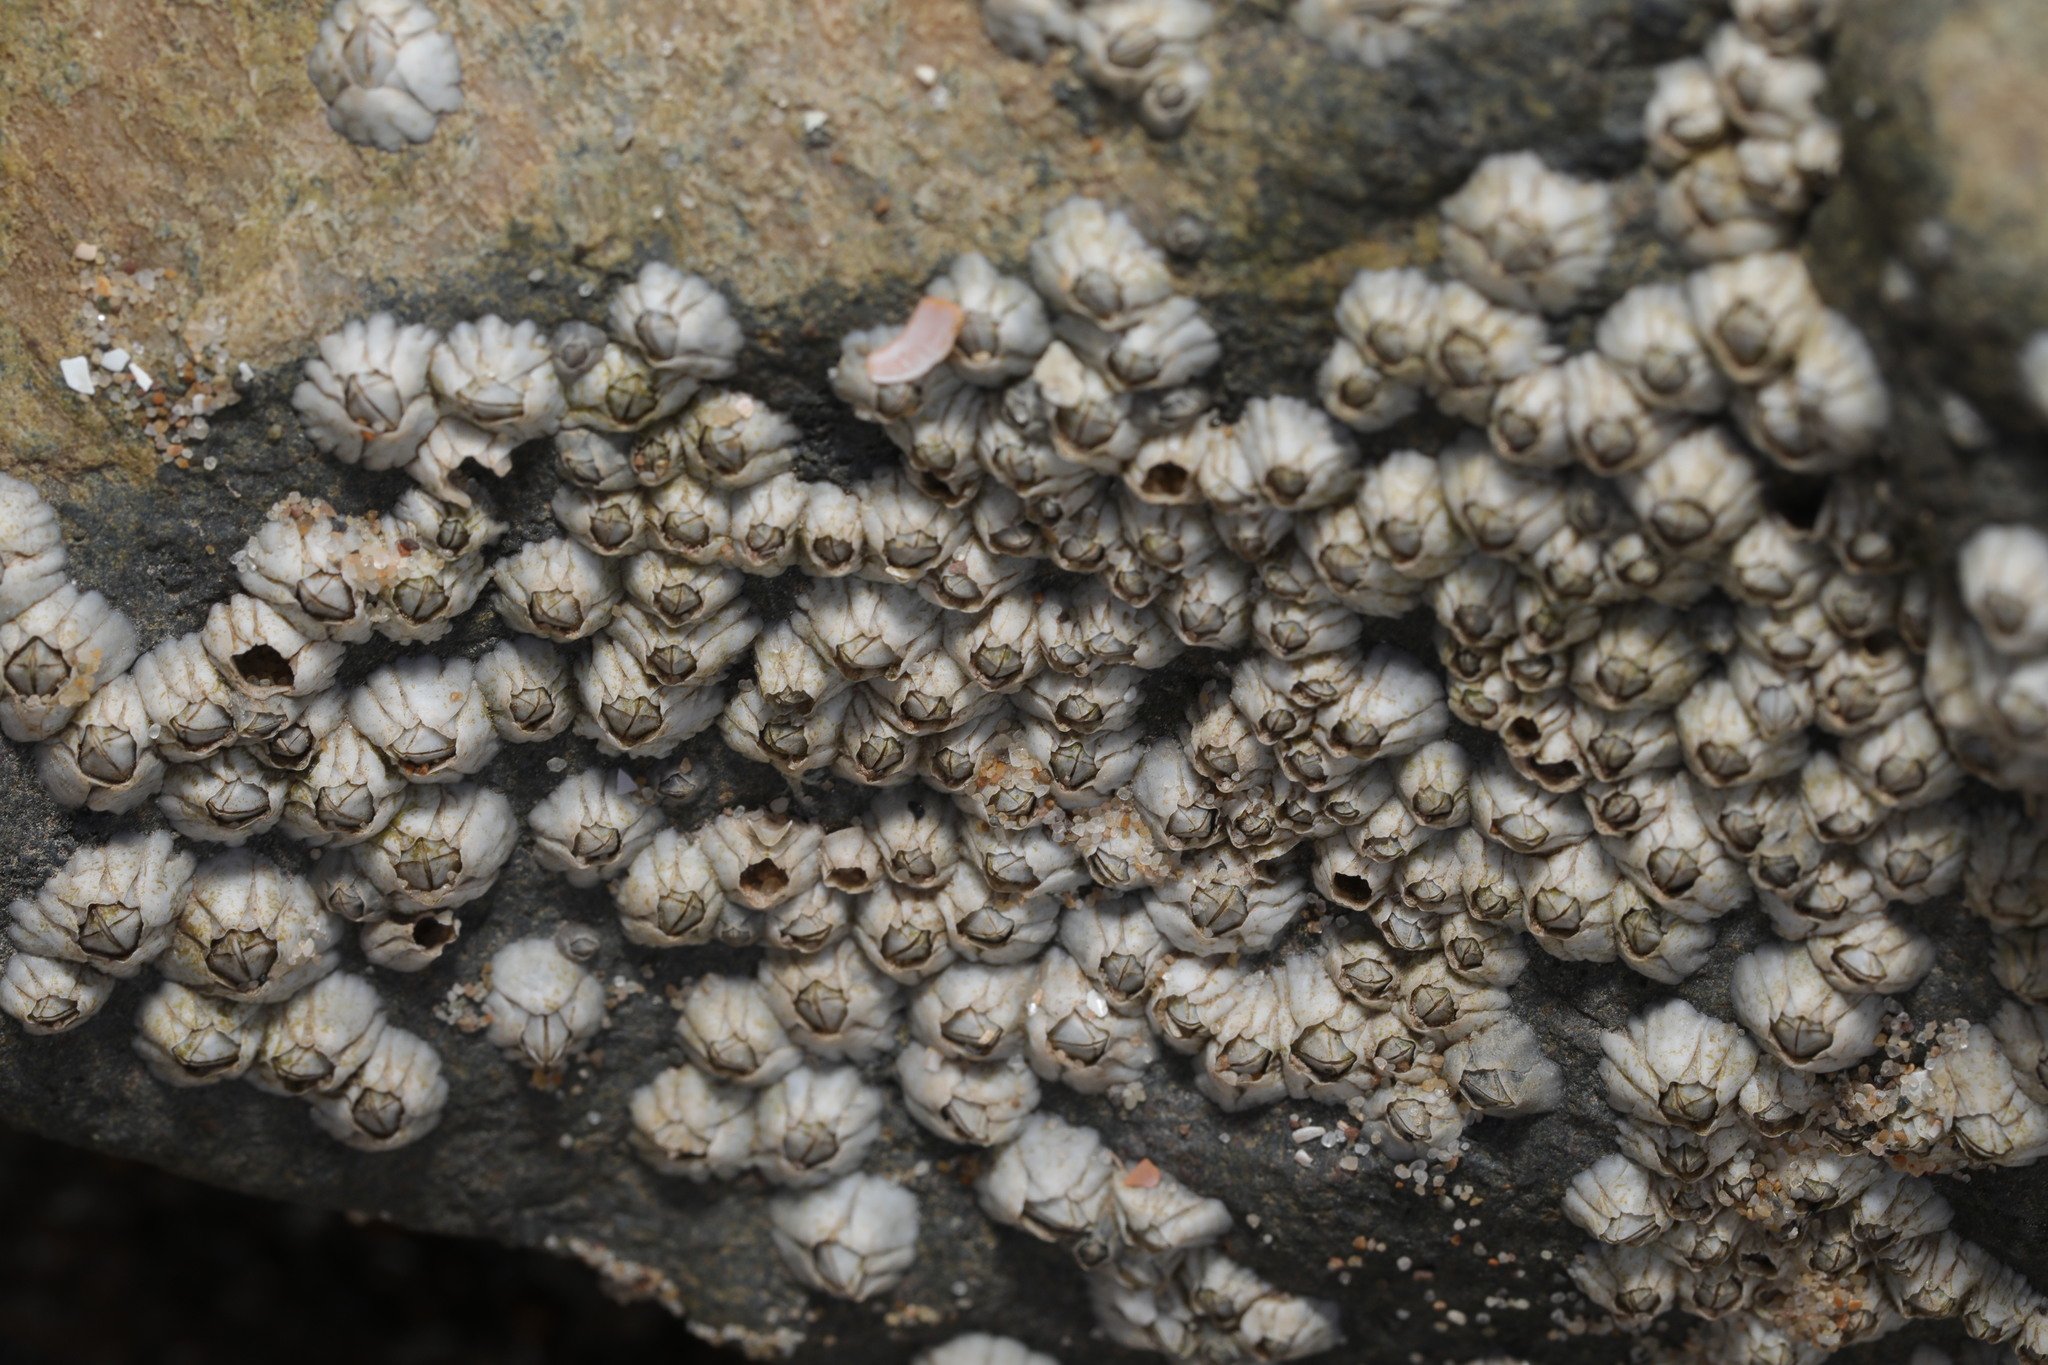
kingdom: Animalia
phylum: Arthropoda
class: Maxillopoda
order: Sessilia
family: Archaeobalanidae
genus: Semibalanus
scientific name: Semibalanus balanoides
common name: Acorn barnacle
